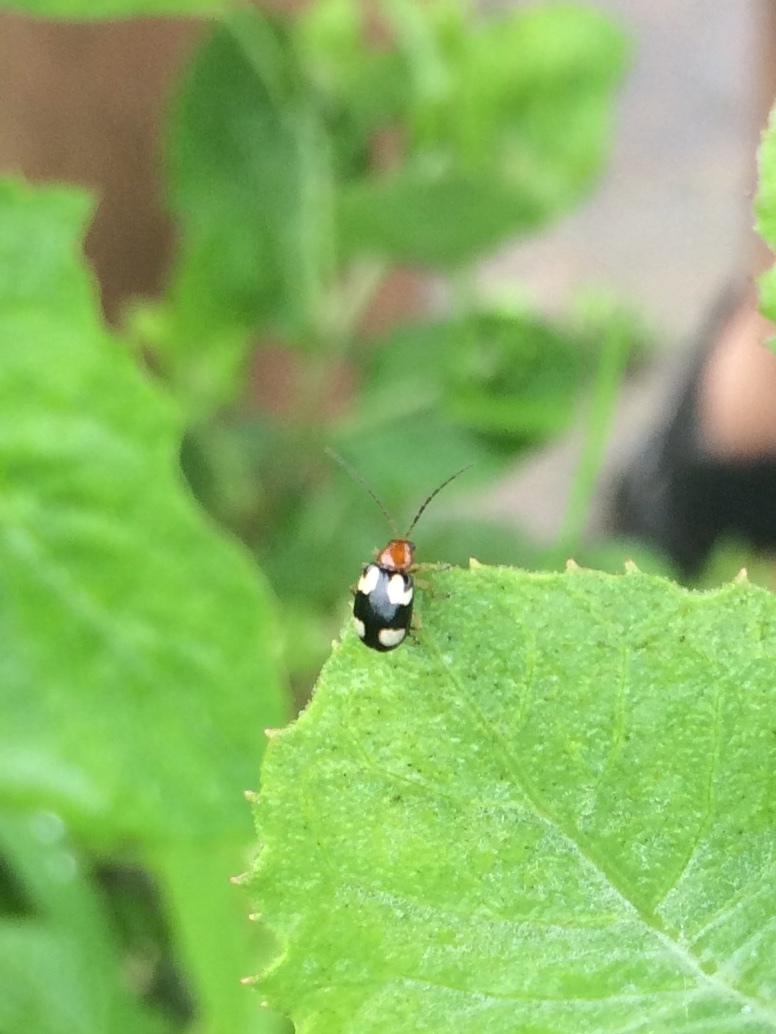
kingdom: Animalia
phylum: Arthropoda
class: Insecta
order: Coleoptera
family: Chrysomelidae
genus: Monolepta
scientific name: Monolepta signata
